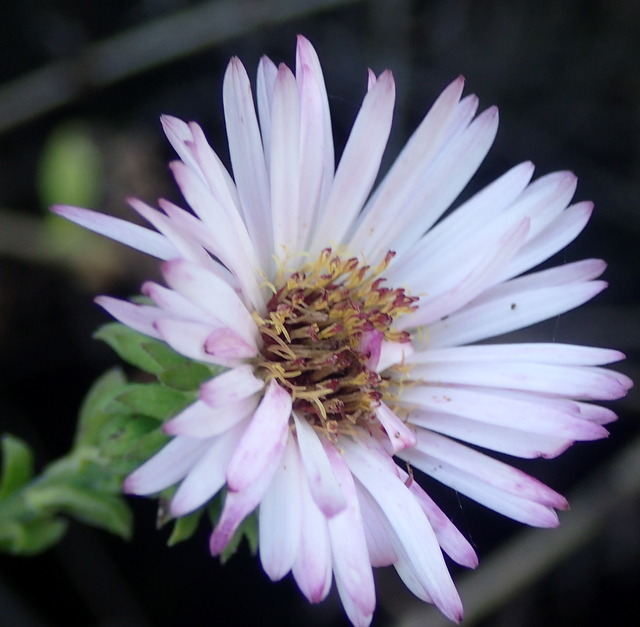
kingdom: Plantae
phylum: Tracheophyta
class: Magnoliopsida
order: Asterales
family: Asteraceae
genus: Ampelaster
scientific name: Ampelaster carolinianus
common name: Climbing aster
